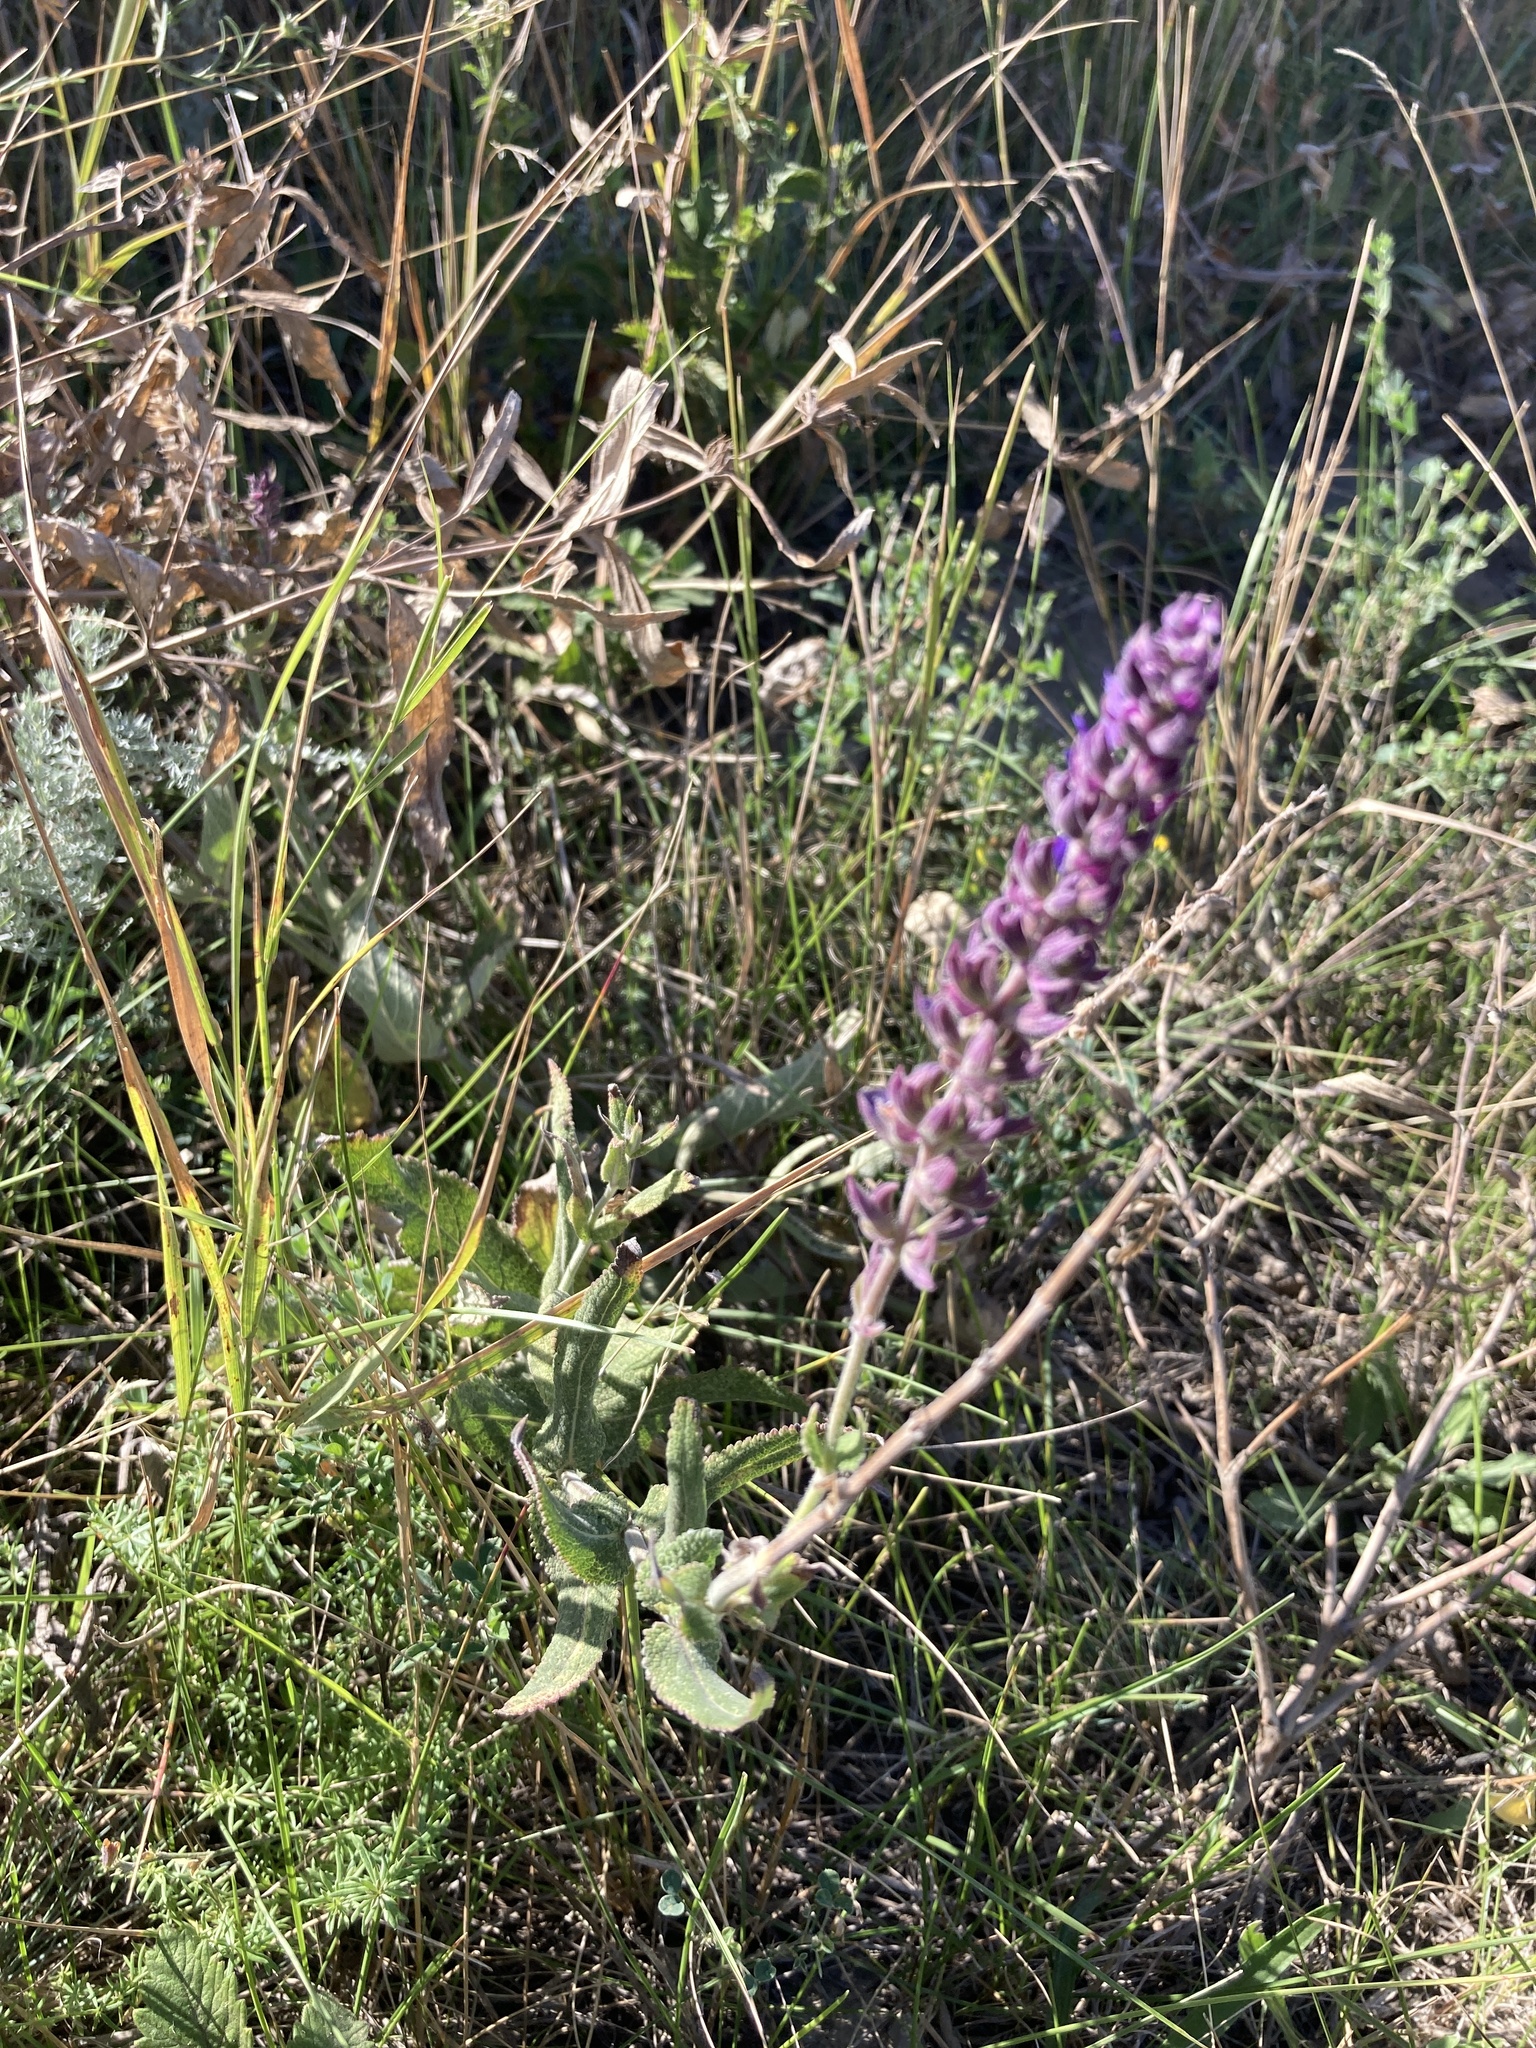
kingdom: Plantae
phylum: Tracheophyta
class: Magnoliopsida
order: Lamiales
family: Lamiaceae
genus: Salvia
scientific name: Salvia nemorosa
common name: Balkan clary
